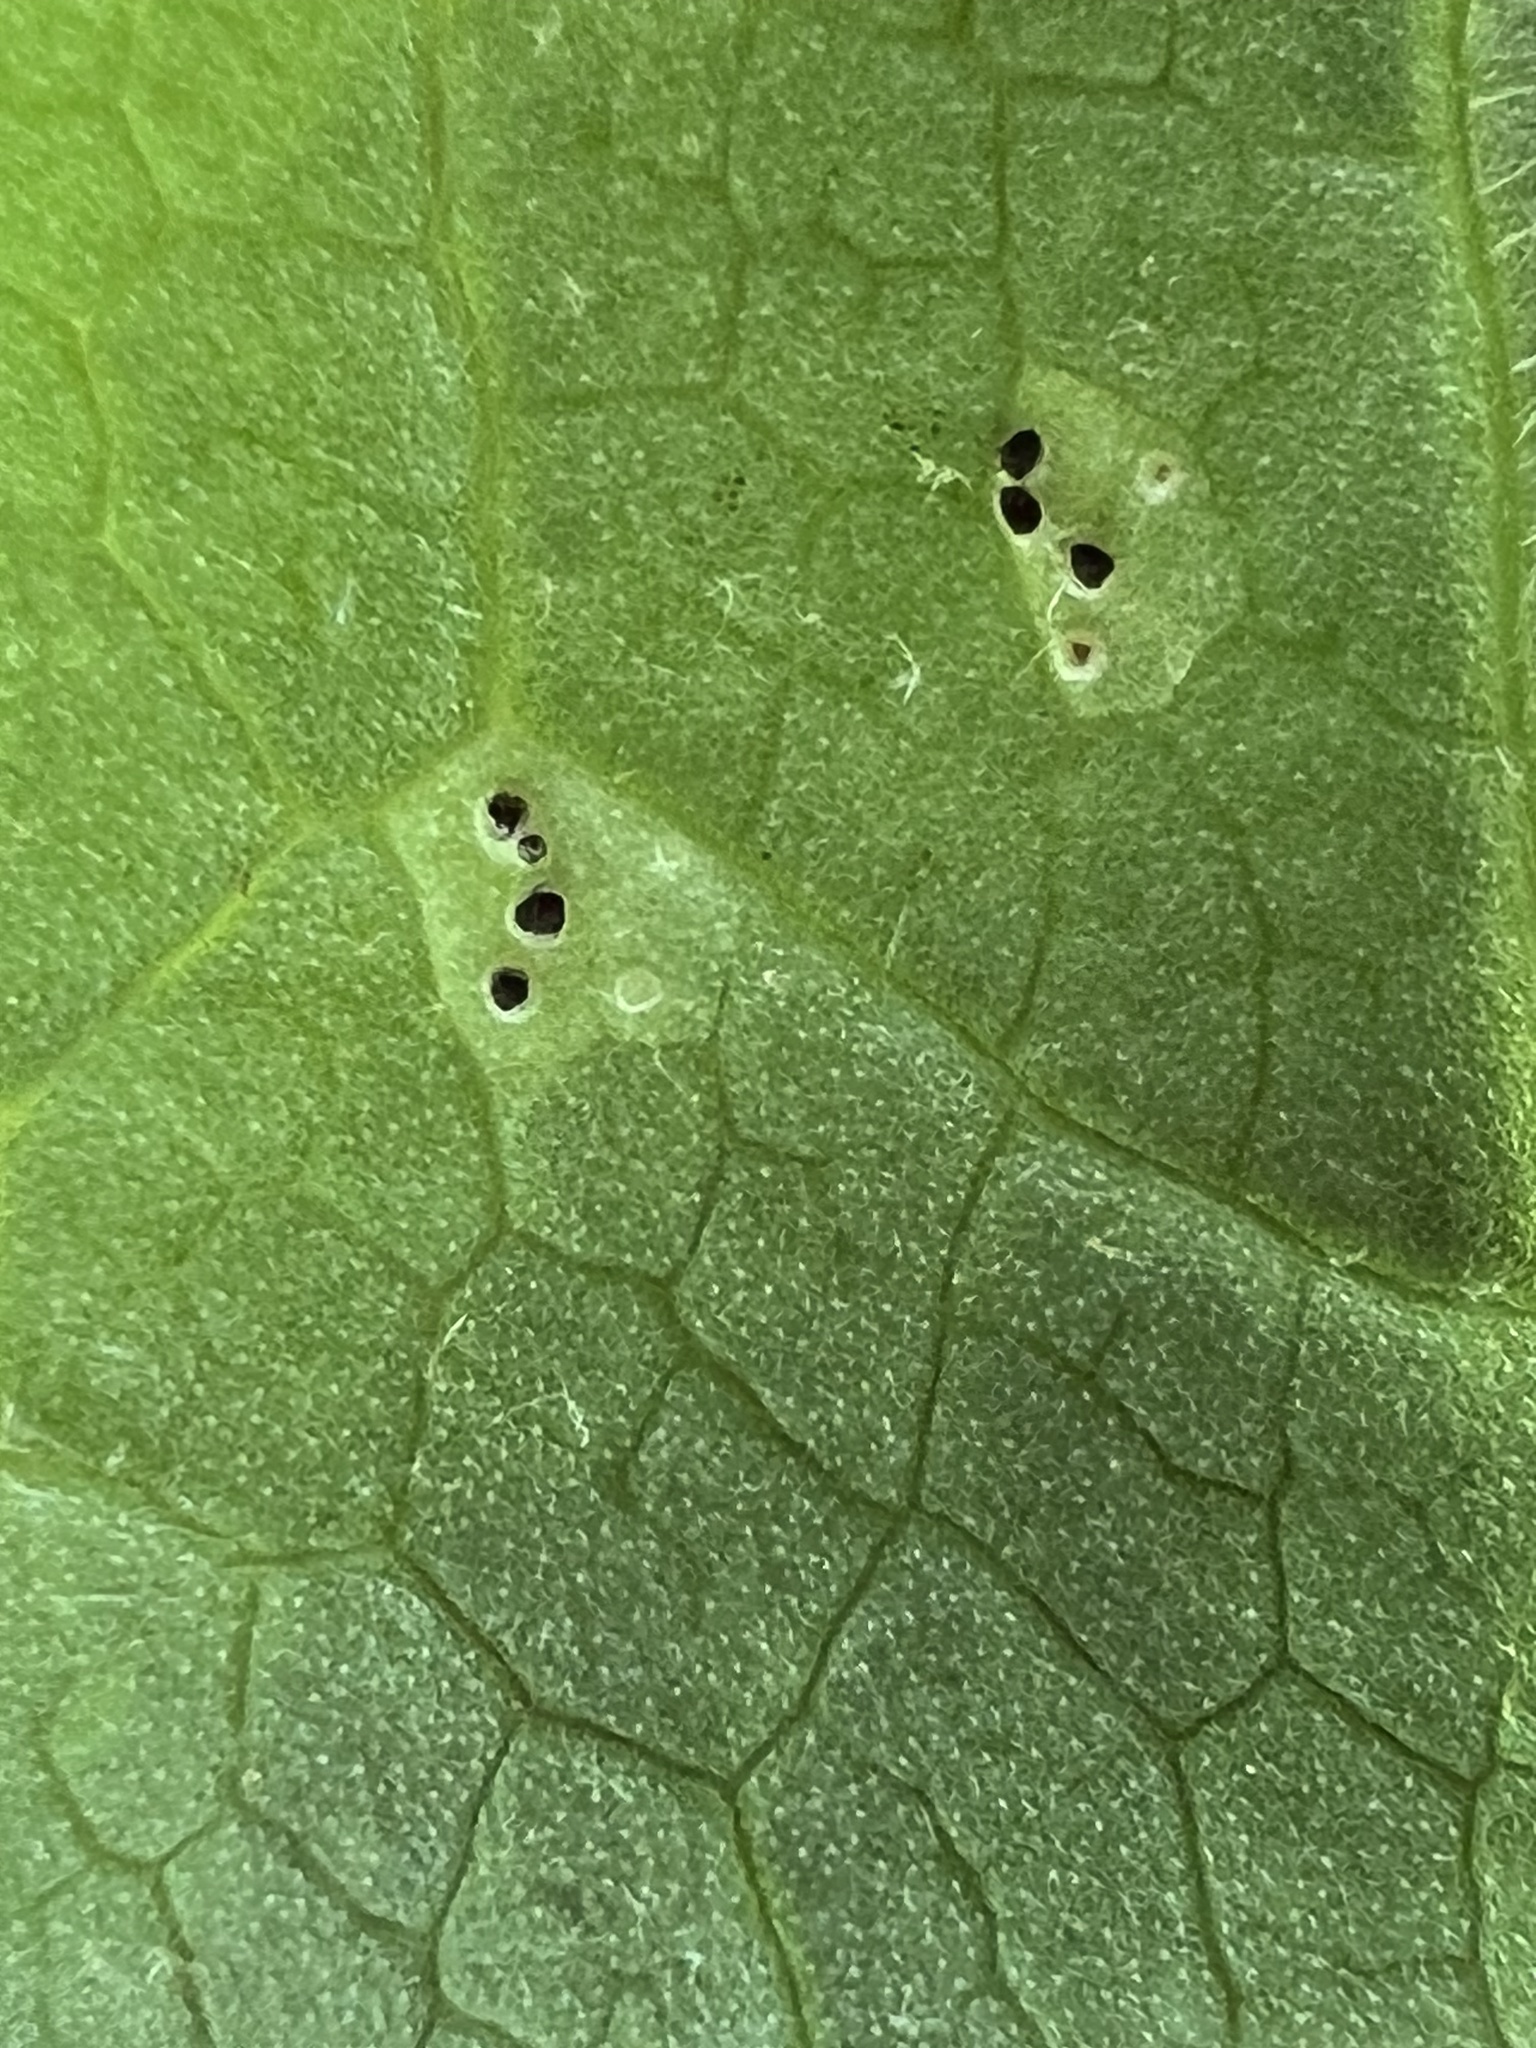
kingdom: Fungi
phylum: Basidiomycota
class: Pucciniomycetes
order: Pucciniales
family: Pucciniaceae
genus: Puccinia
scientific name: Puccinia podophylli
